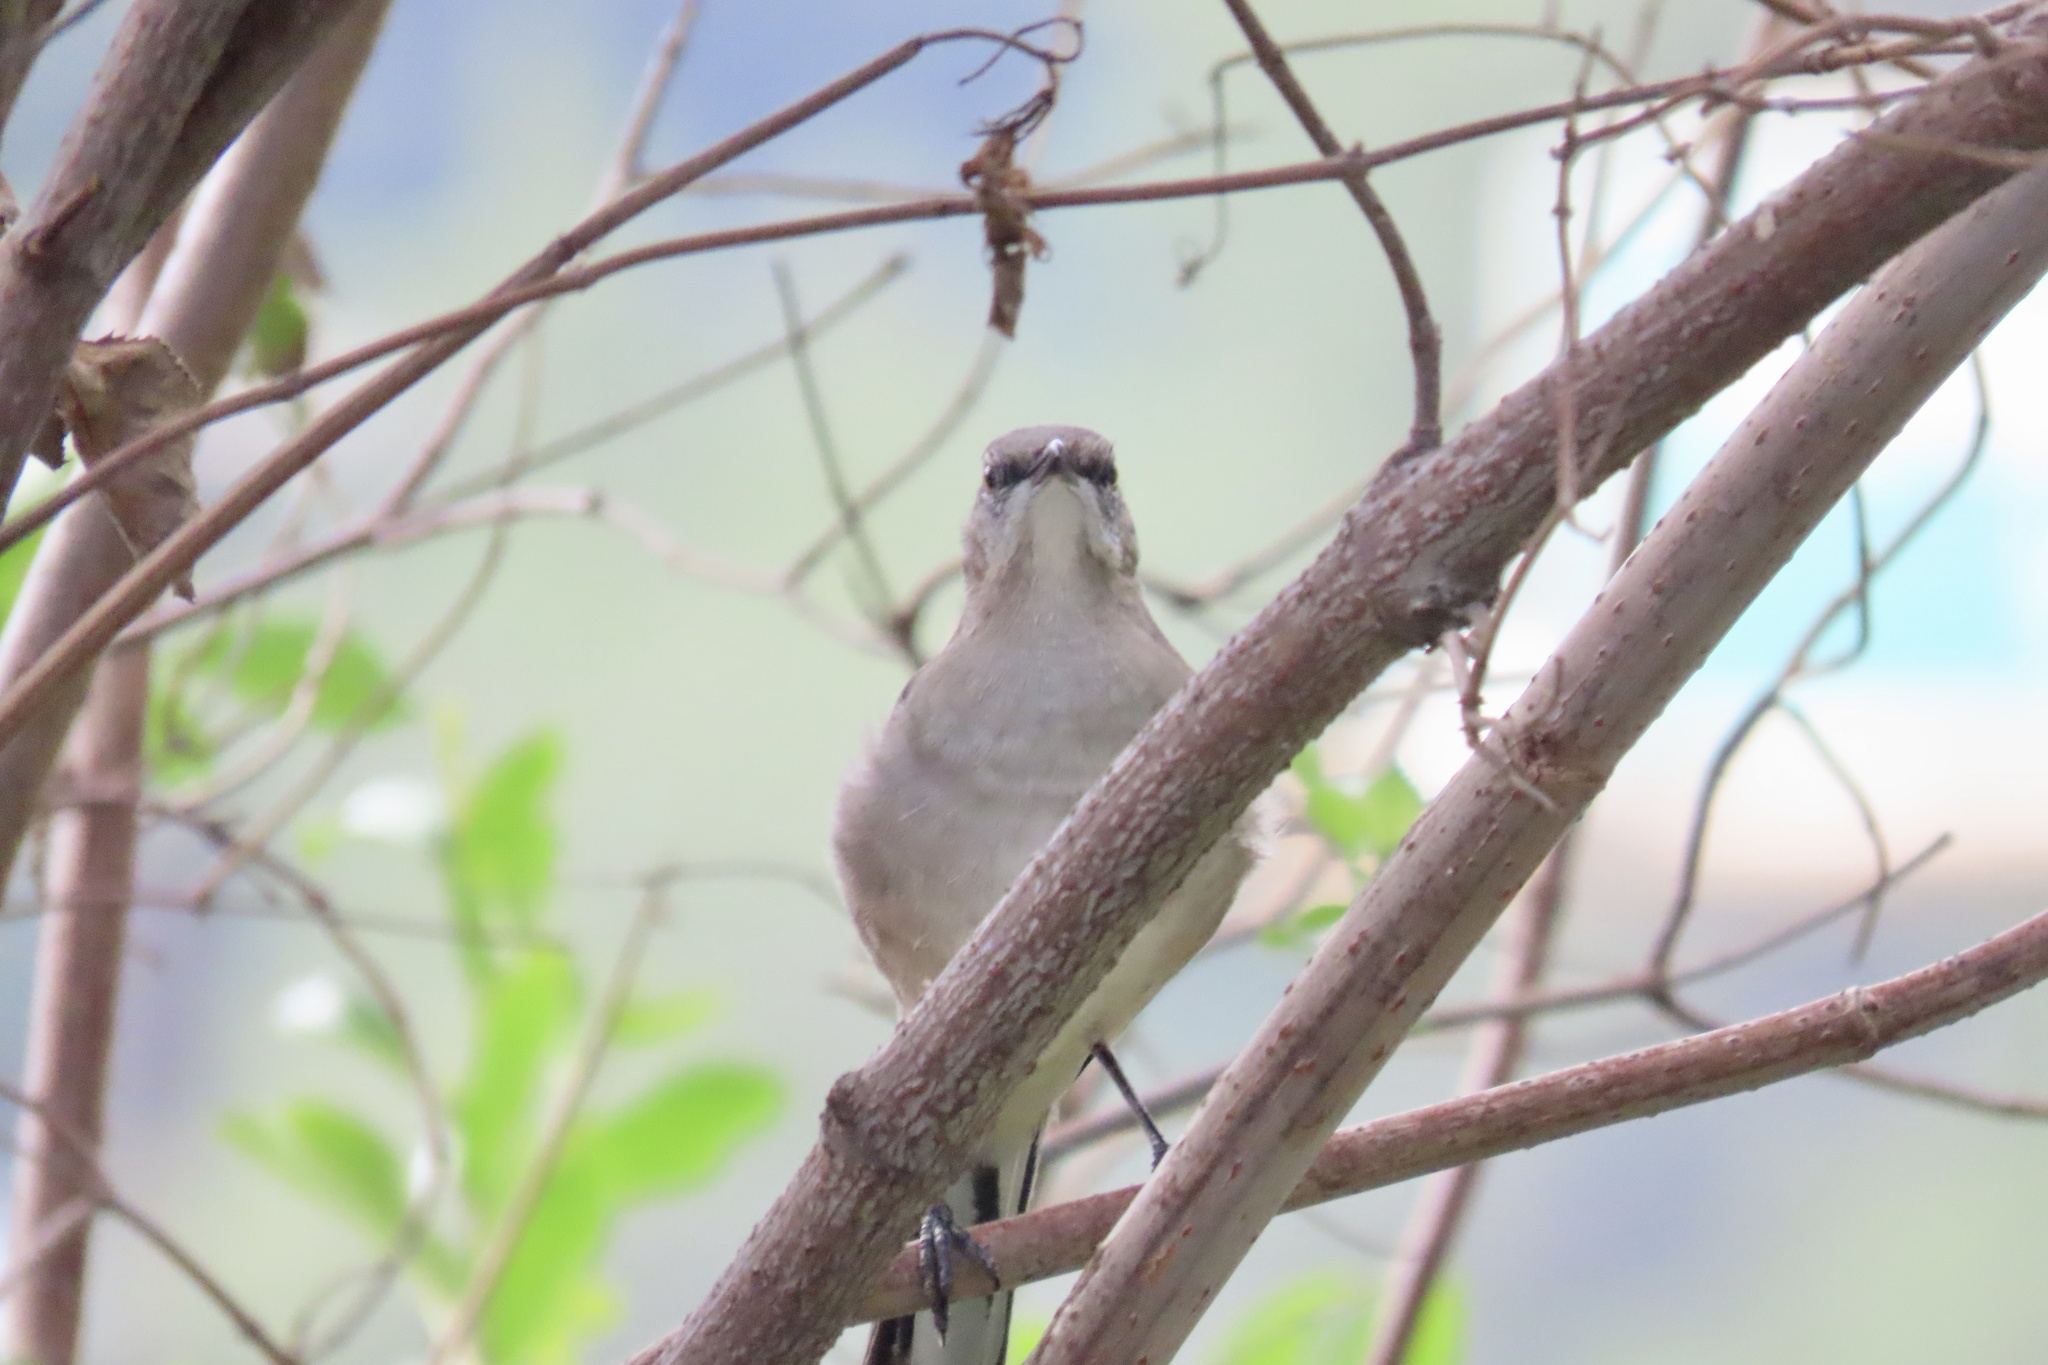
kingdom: Animalia
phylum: Chordata
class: Aves
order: Passeriformes
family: Mimidae
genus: Mimus
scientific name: Mimus polyglottos
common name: Northern mockingbird
